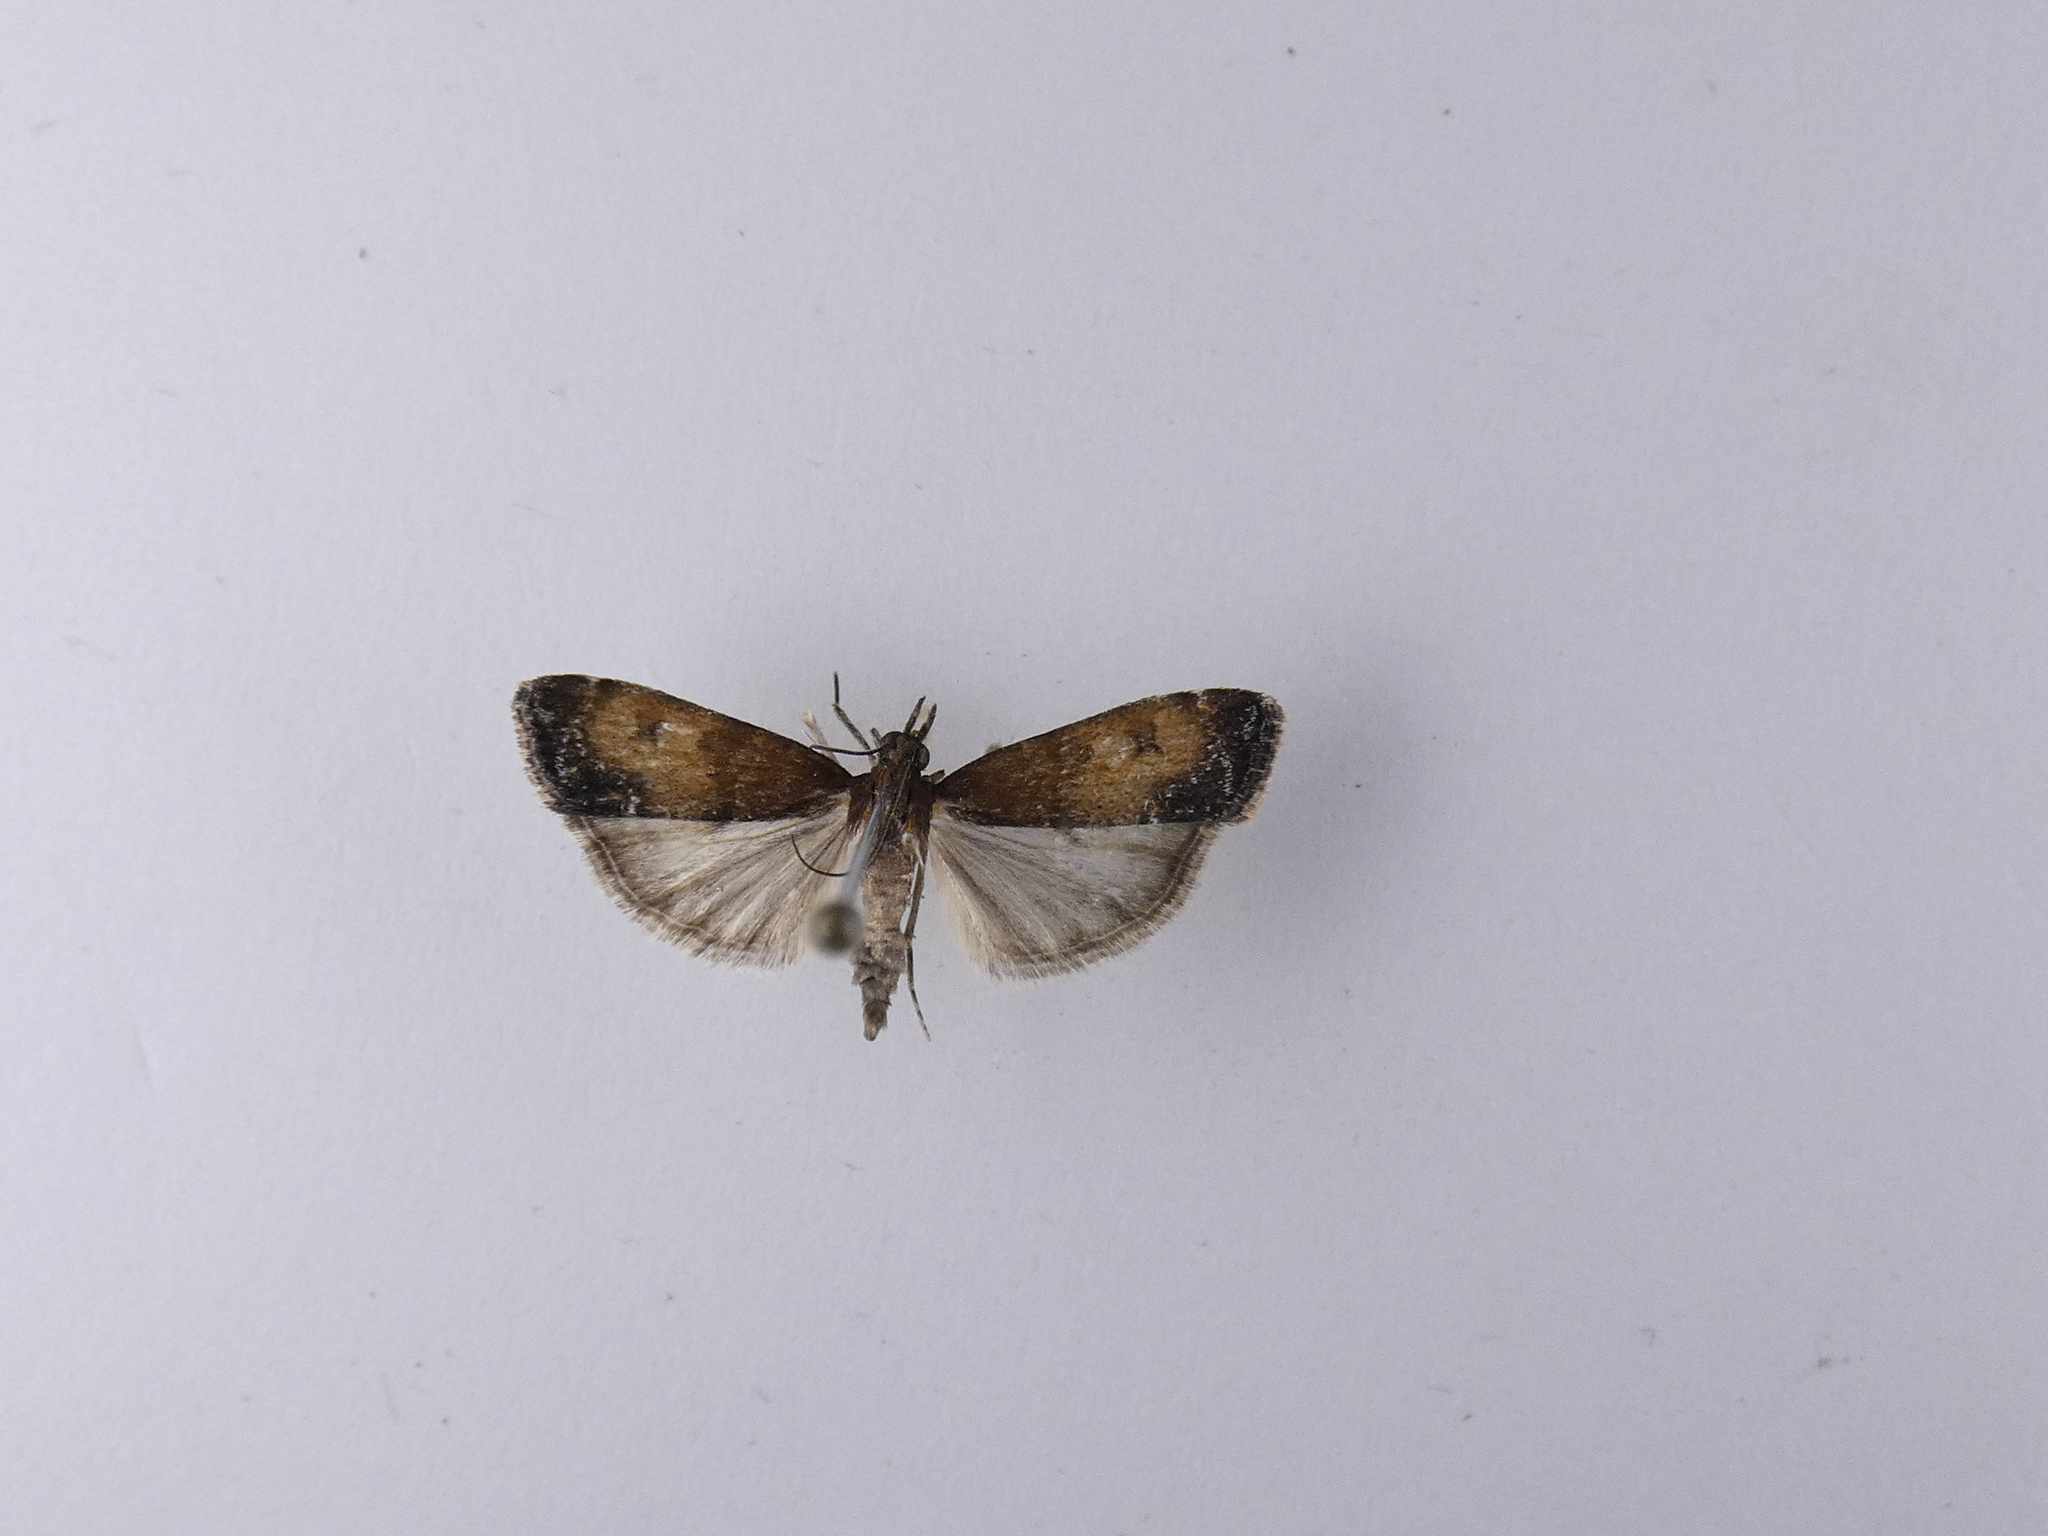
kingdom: Animalia
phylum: Arthropoda
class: Insecta
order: Lepidoptera
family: Crambidae
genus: Eudonia
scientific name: Eudonia asterisca
